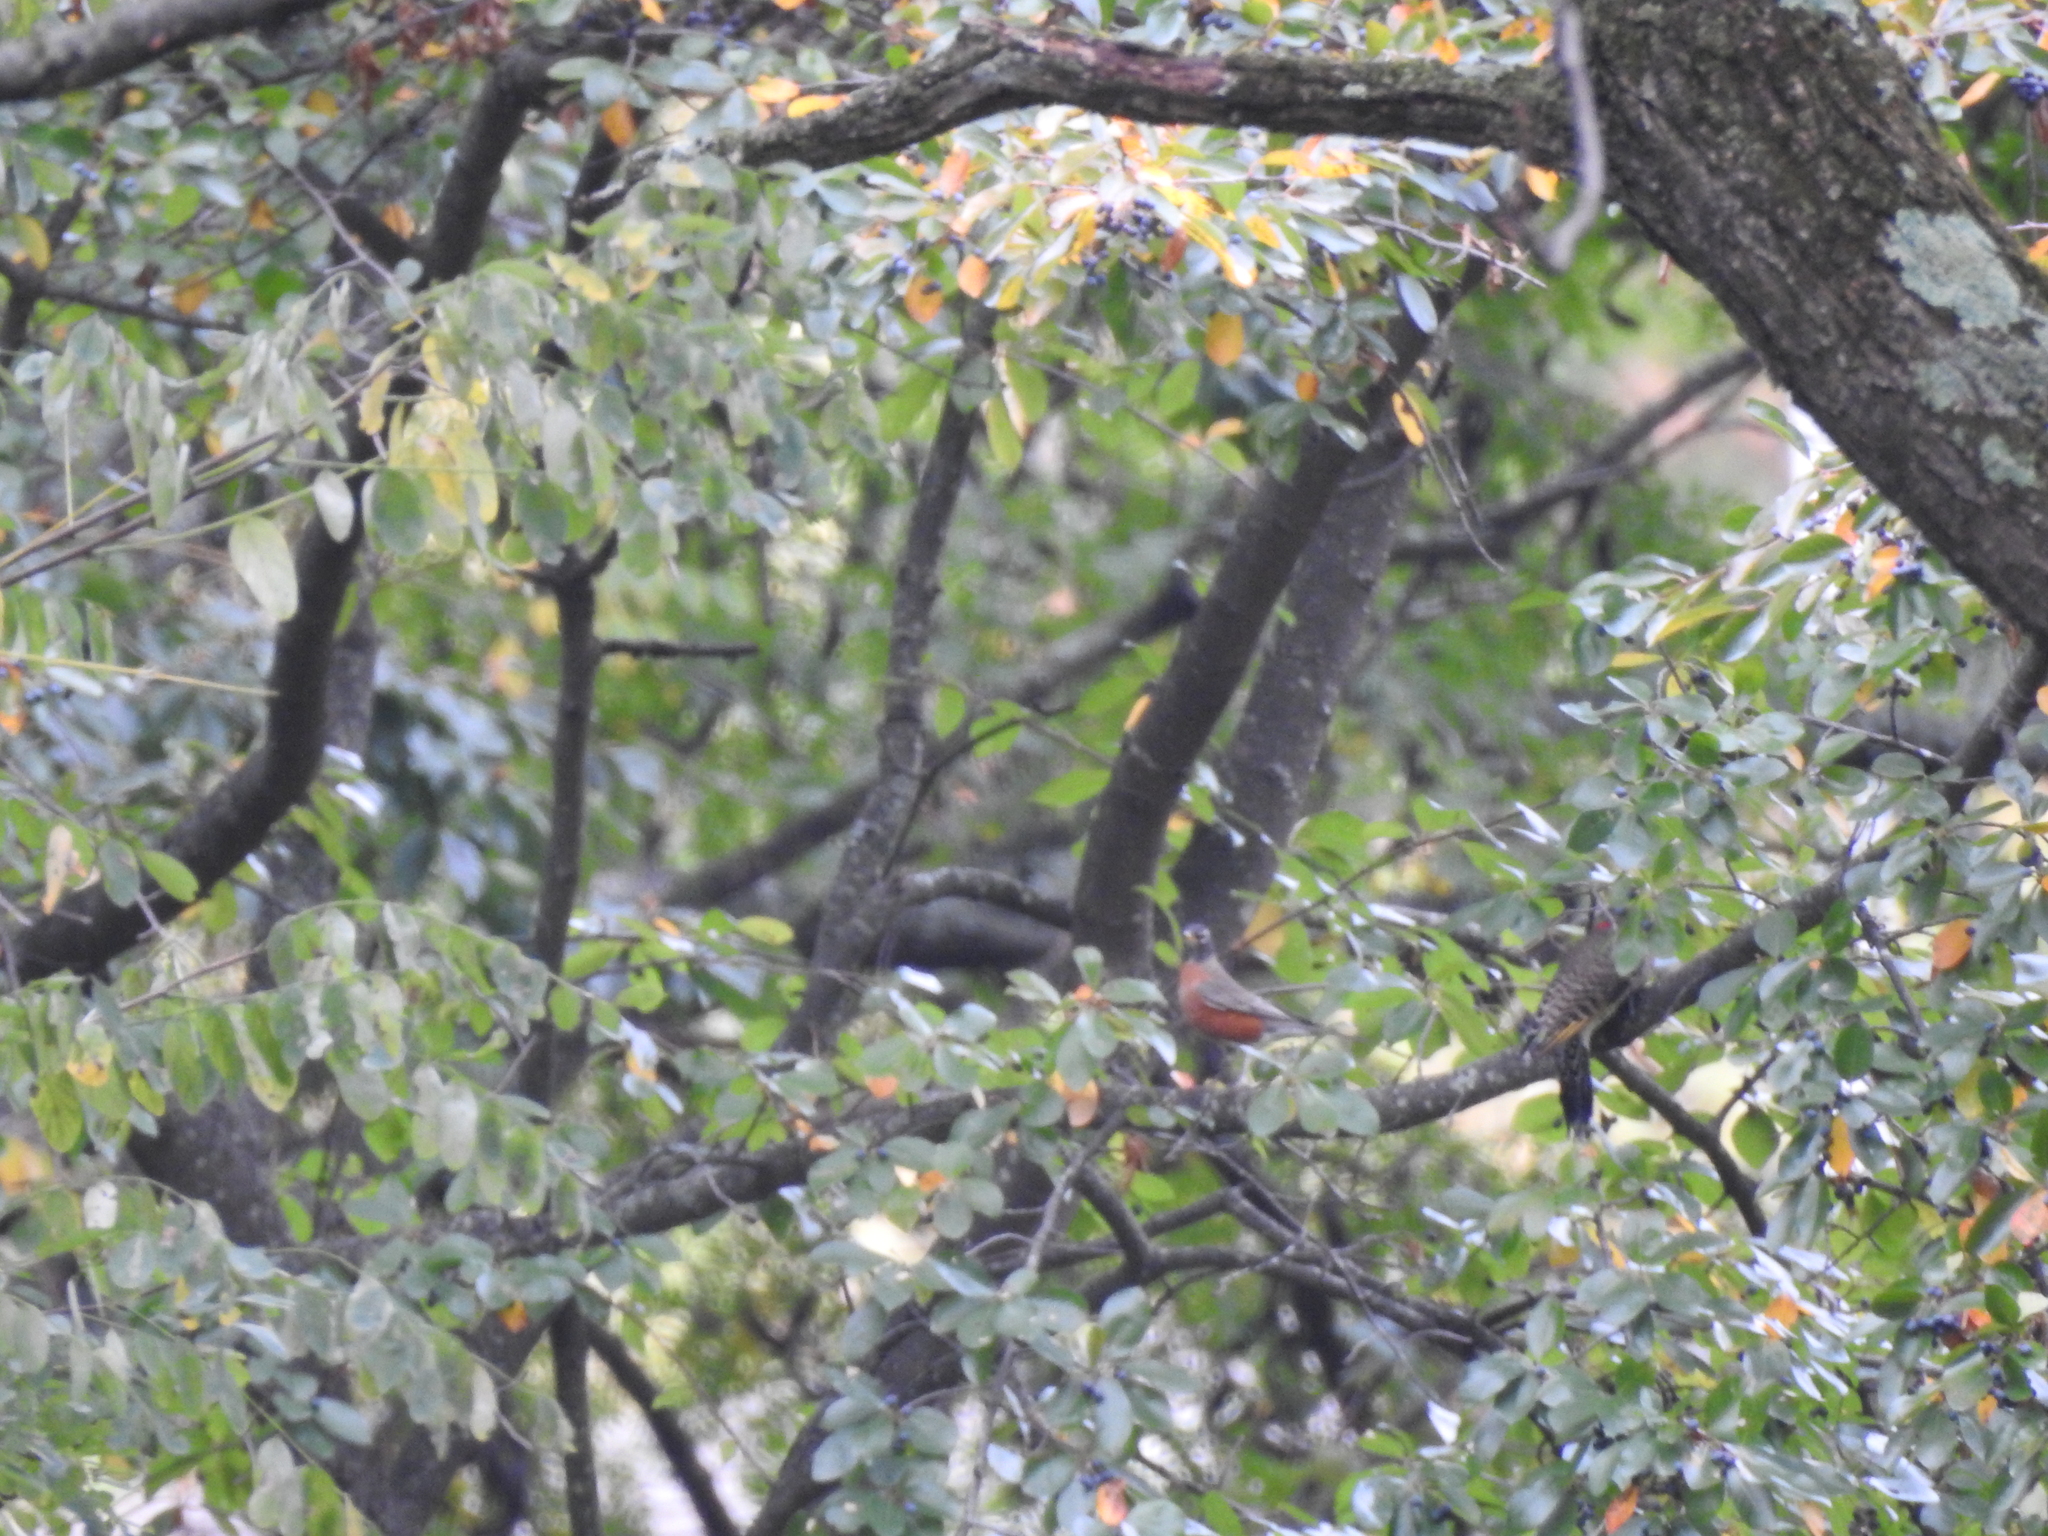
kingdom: Animalia
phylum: Chordata
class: Aves
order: Passeriformes
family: Turdidae
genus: Turdus
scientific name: Turdus migratorius
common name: American robin
